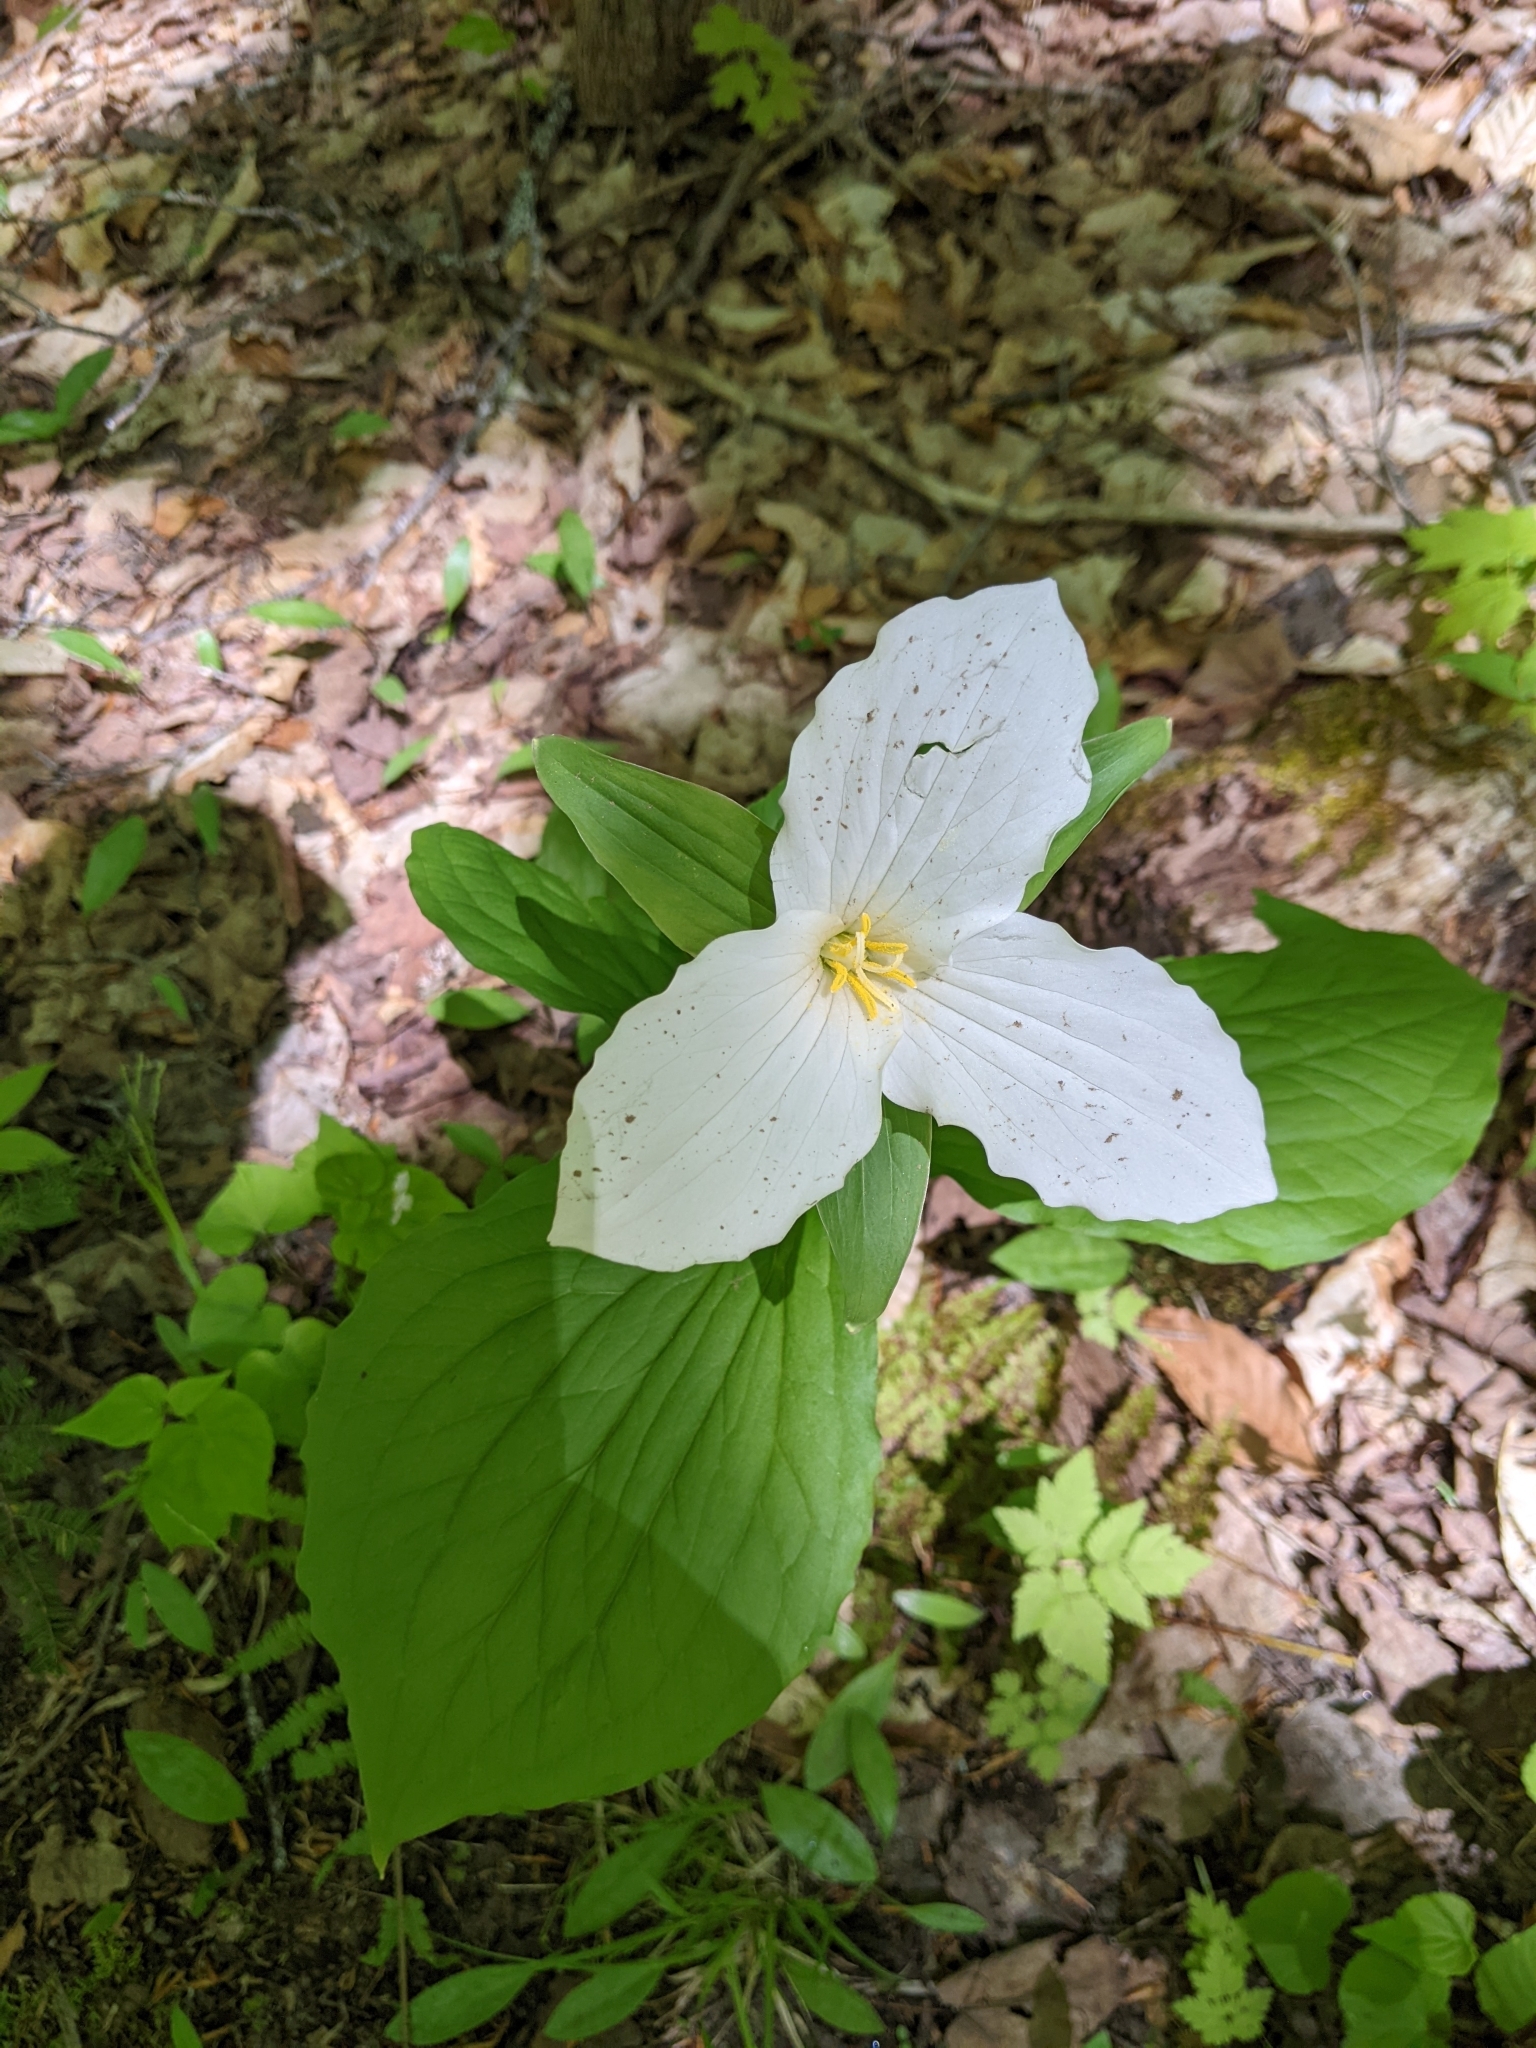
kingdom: Plantae
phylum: Tracheophyta
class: Liliopsida
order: Liliales
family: Melanthiaceae
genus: Trillium
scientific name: Trillium grandiflorum
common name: Great white trillium
